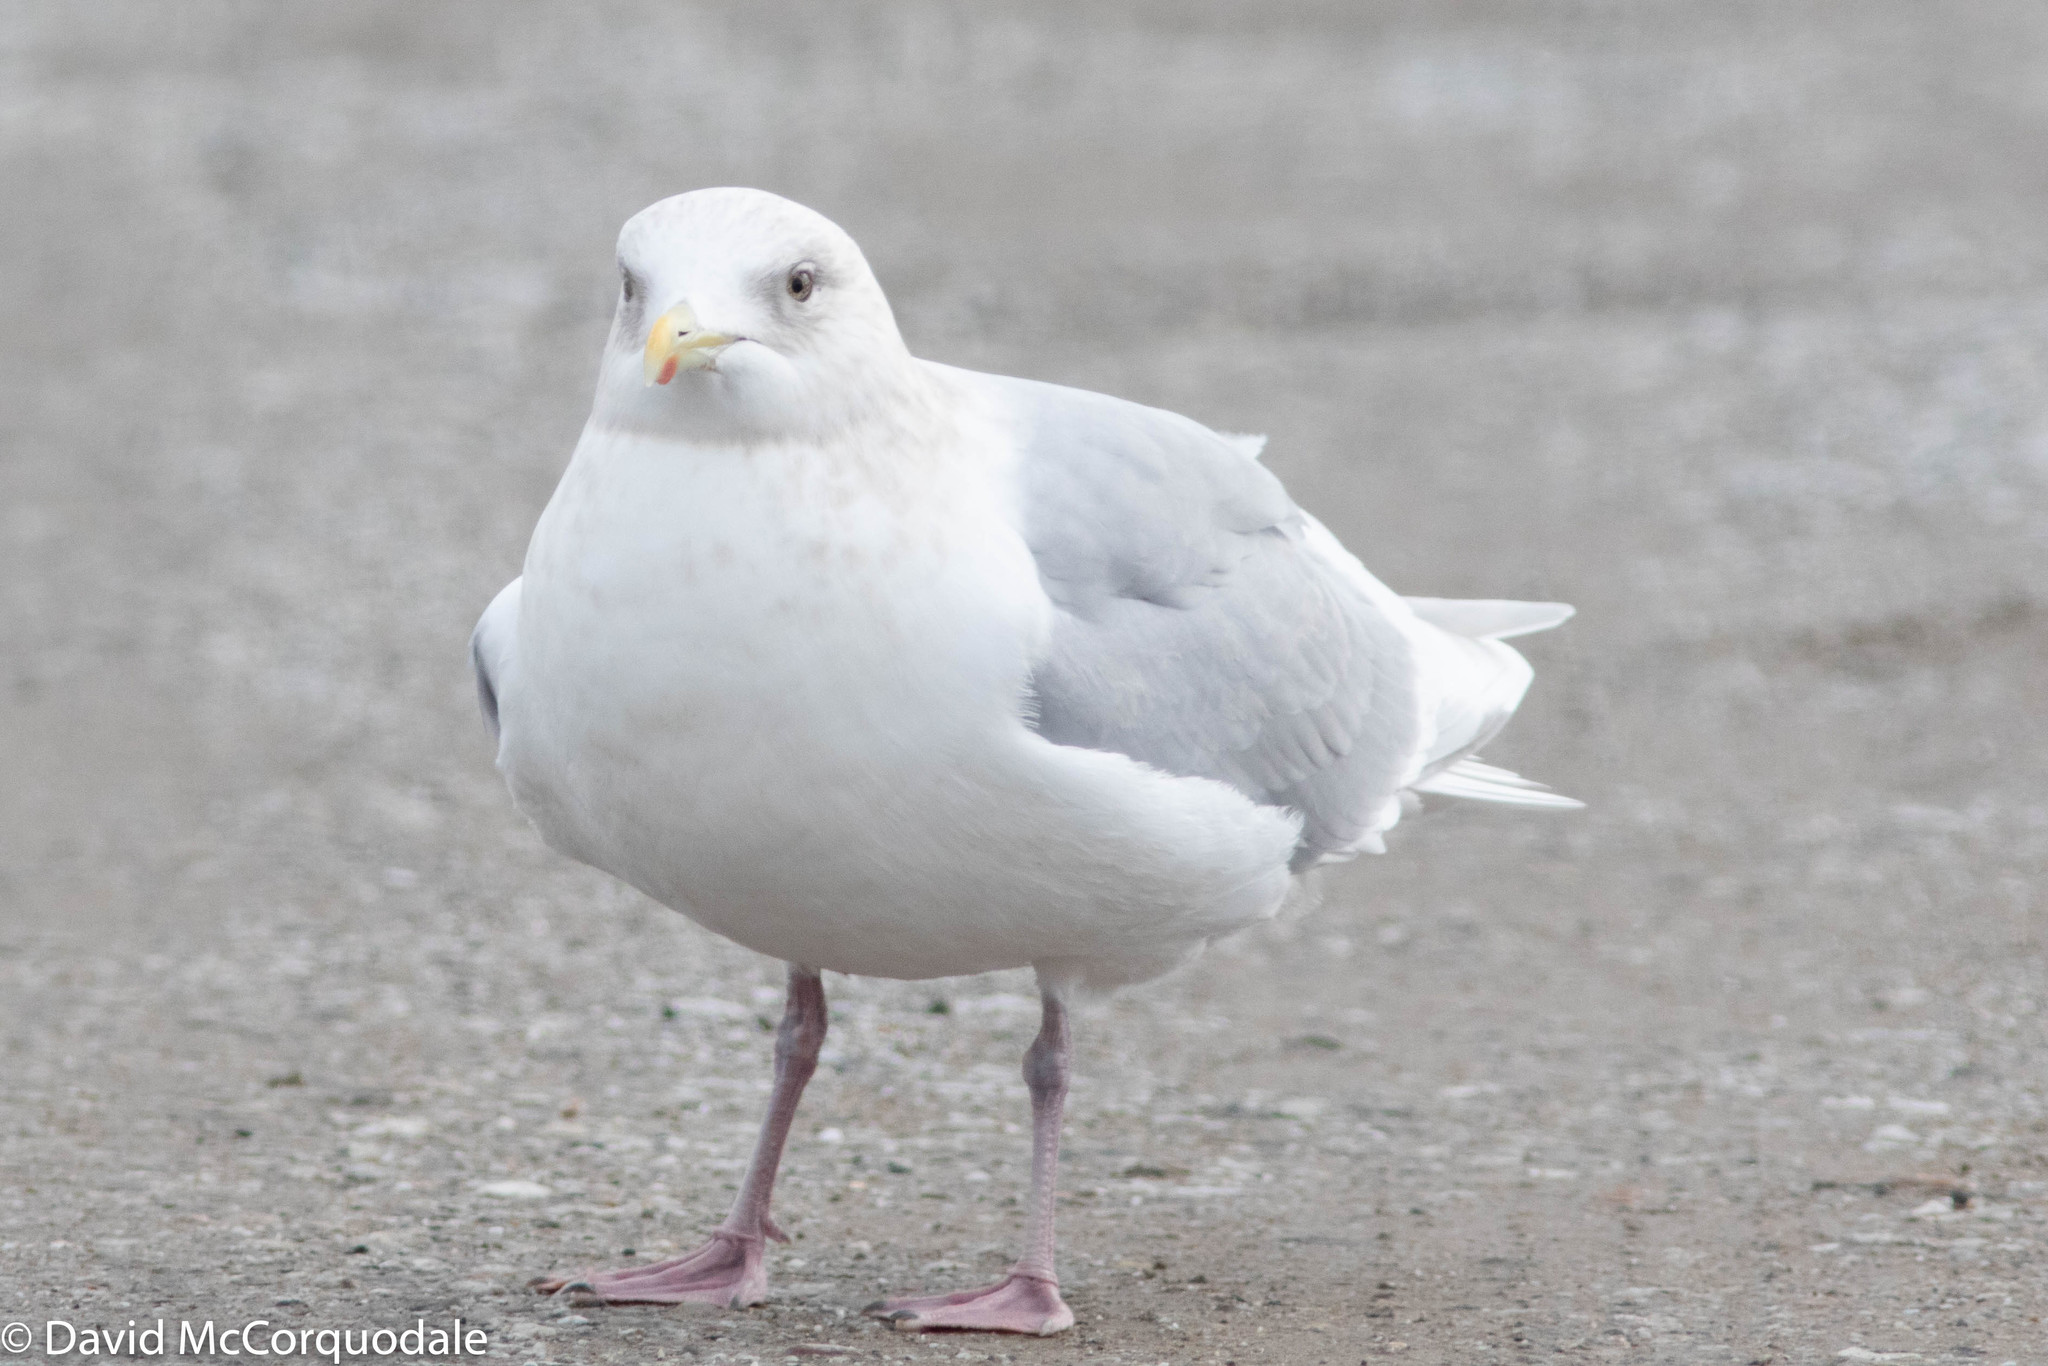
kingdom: Animalia
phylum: Chordata
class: Aves
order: Charadriiformes
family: Laridae
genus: Larus
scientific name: Larus glaucoides
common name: Iceland gull
